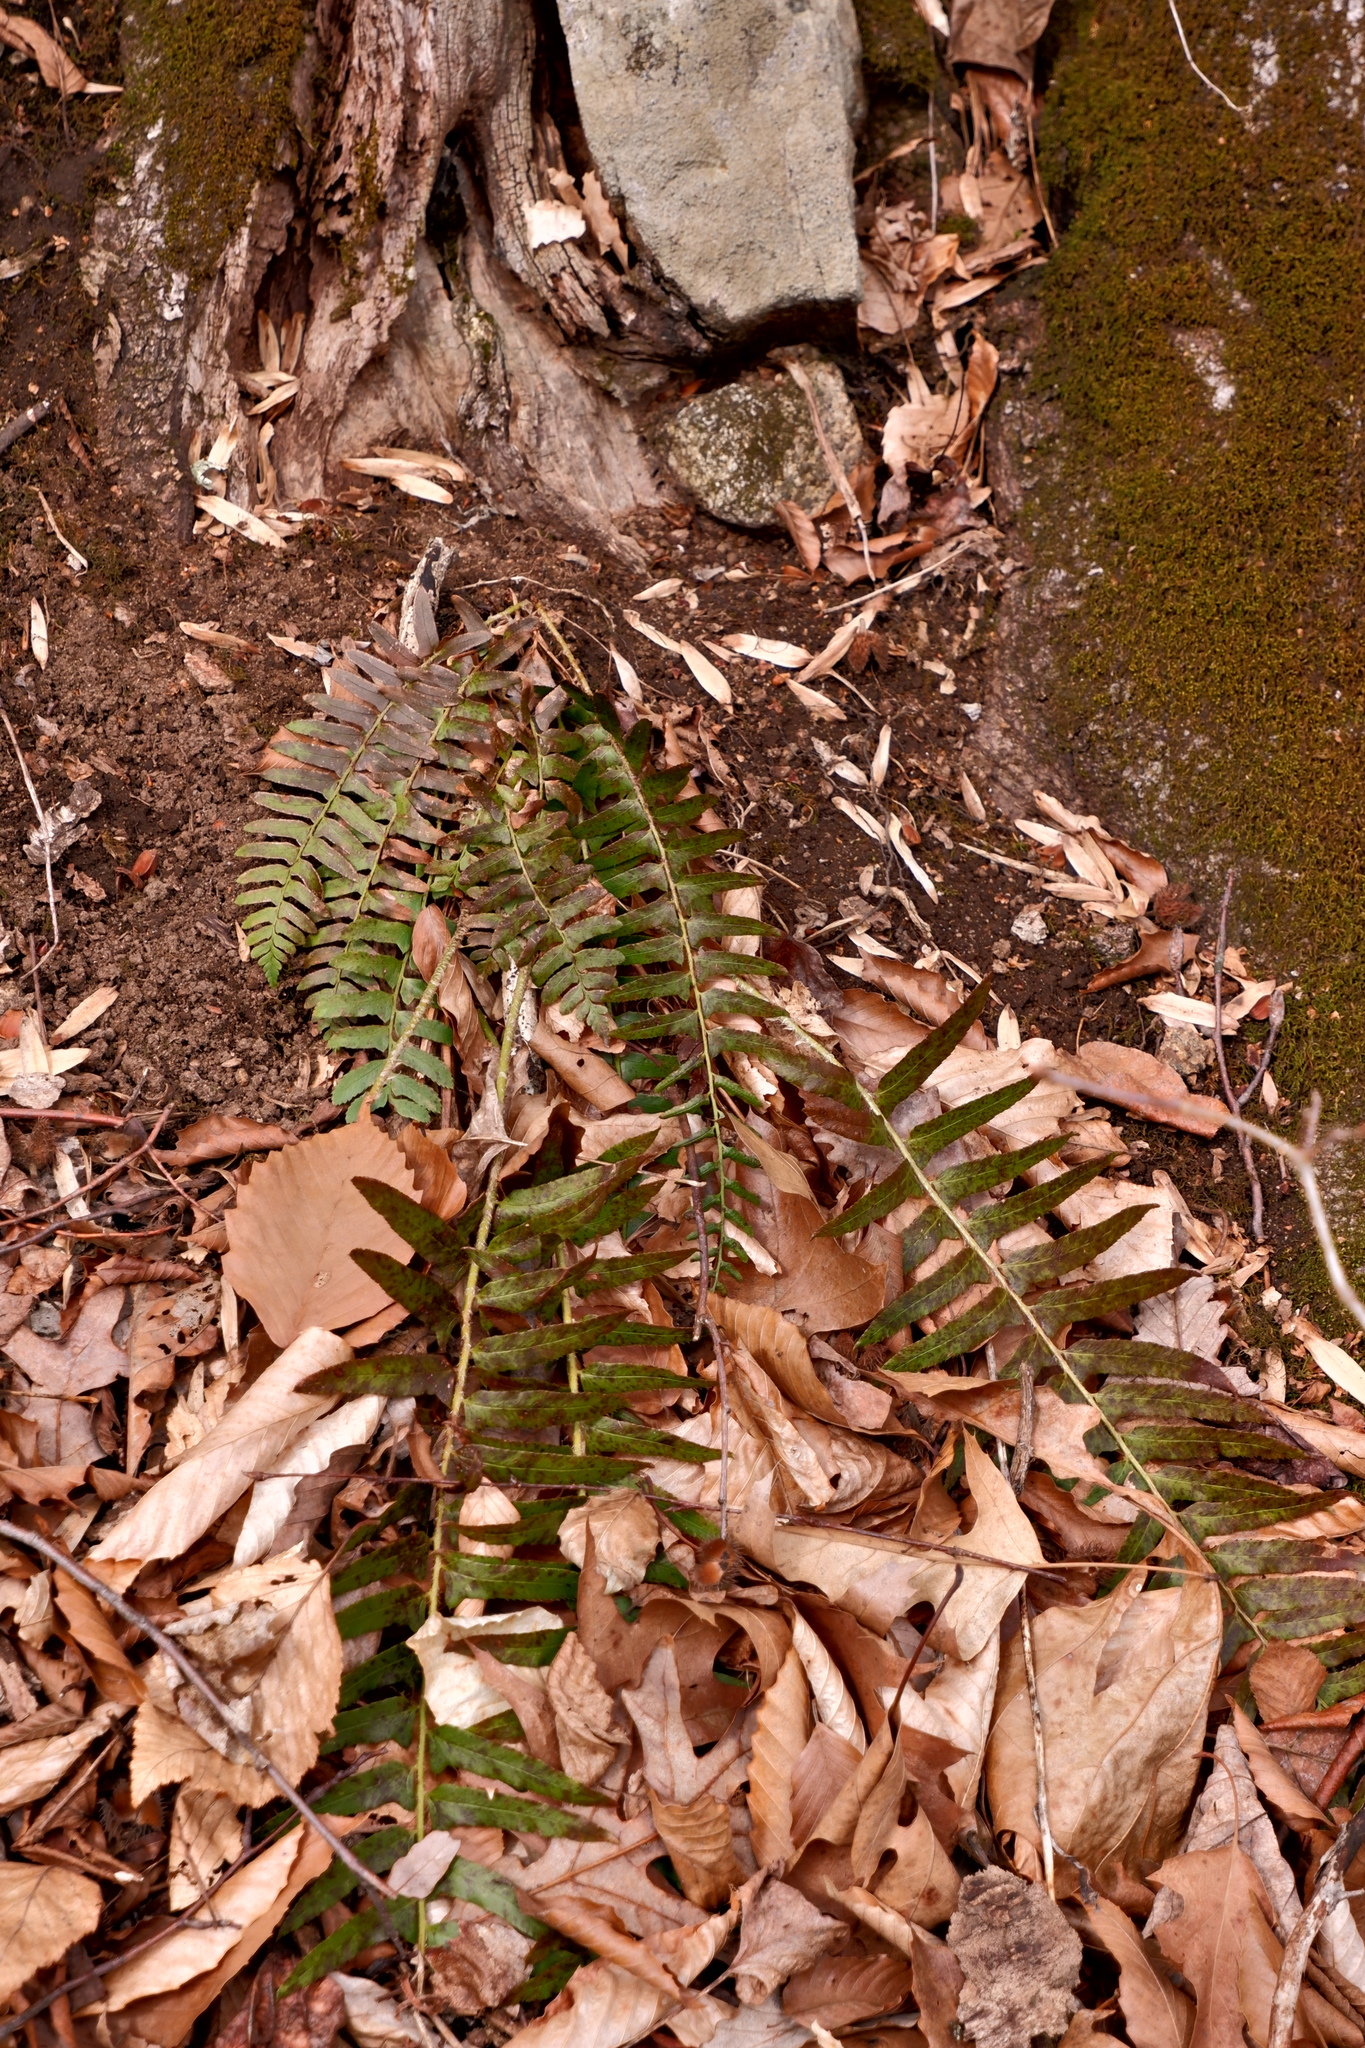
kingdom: Plantae
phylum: Tracheophyta
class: Polypodiopsida
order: Polypodiales
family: Dryopteridaceae
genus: Polystichum
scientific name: Polystichum acrostichoides
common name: Christmas fern
